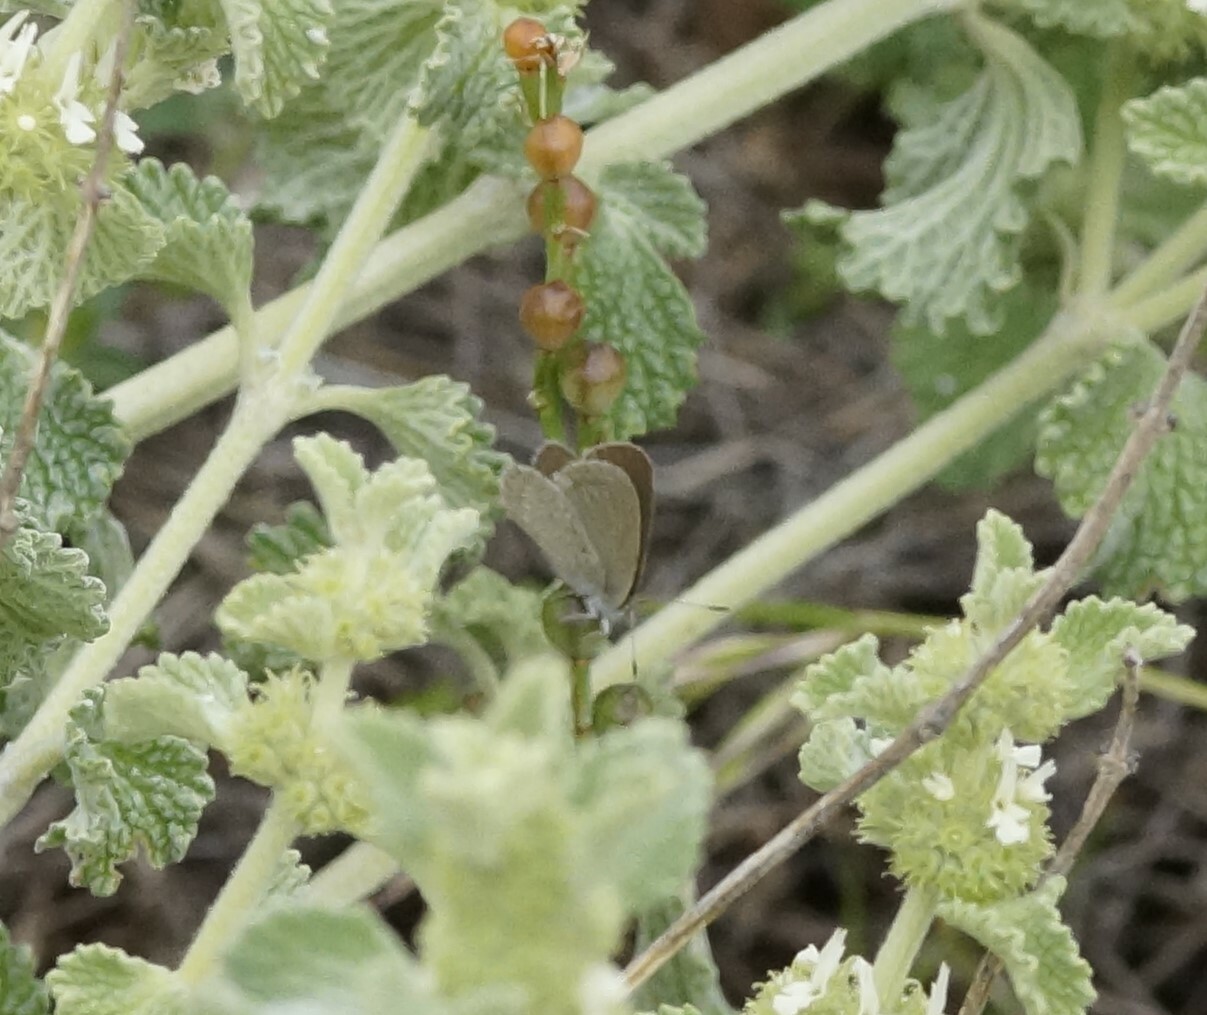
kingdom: Animalia
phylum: Arthropoda
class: Insecta
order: Lepidoptera
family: Lycaenidae
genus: Zizina
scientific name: Zizina otis
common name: Lesser grass blue
